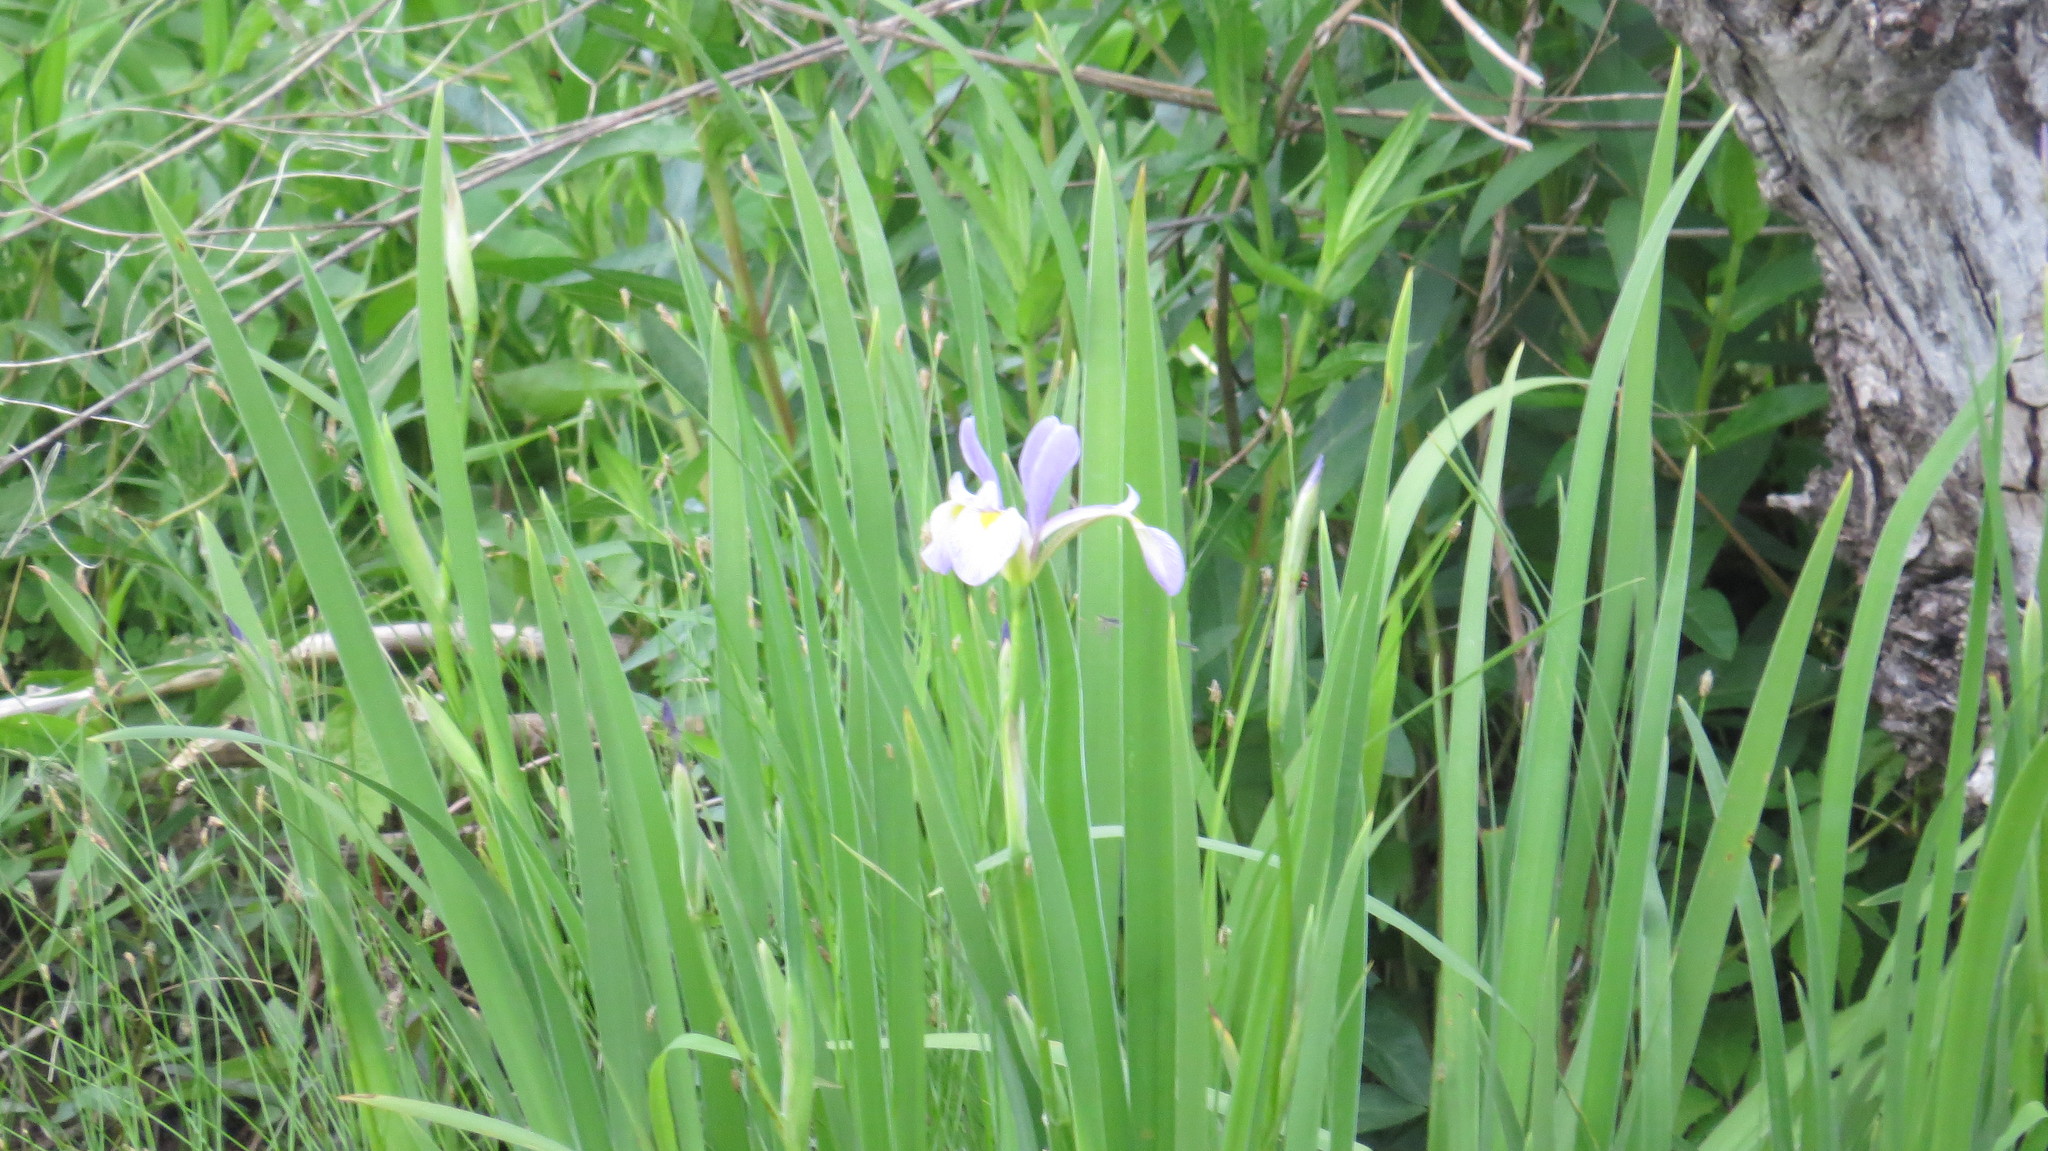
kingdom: Plantae
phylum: Tracheophyta
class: Liliopsida
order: Asparagales
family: Iridaceae
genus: Iris
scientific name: Iris virginica
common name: Southern blue flag
